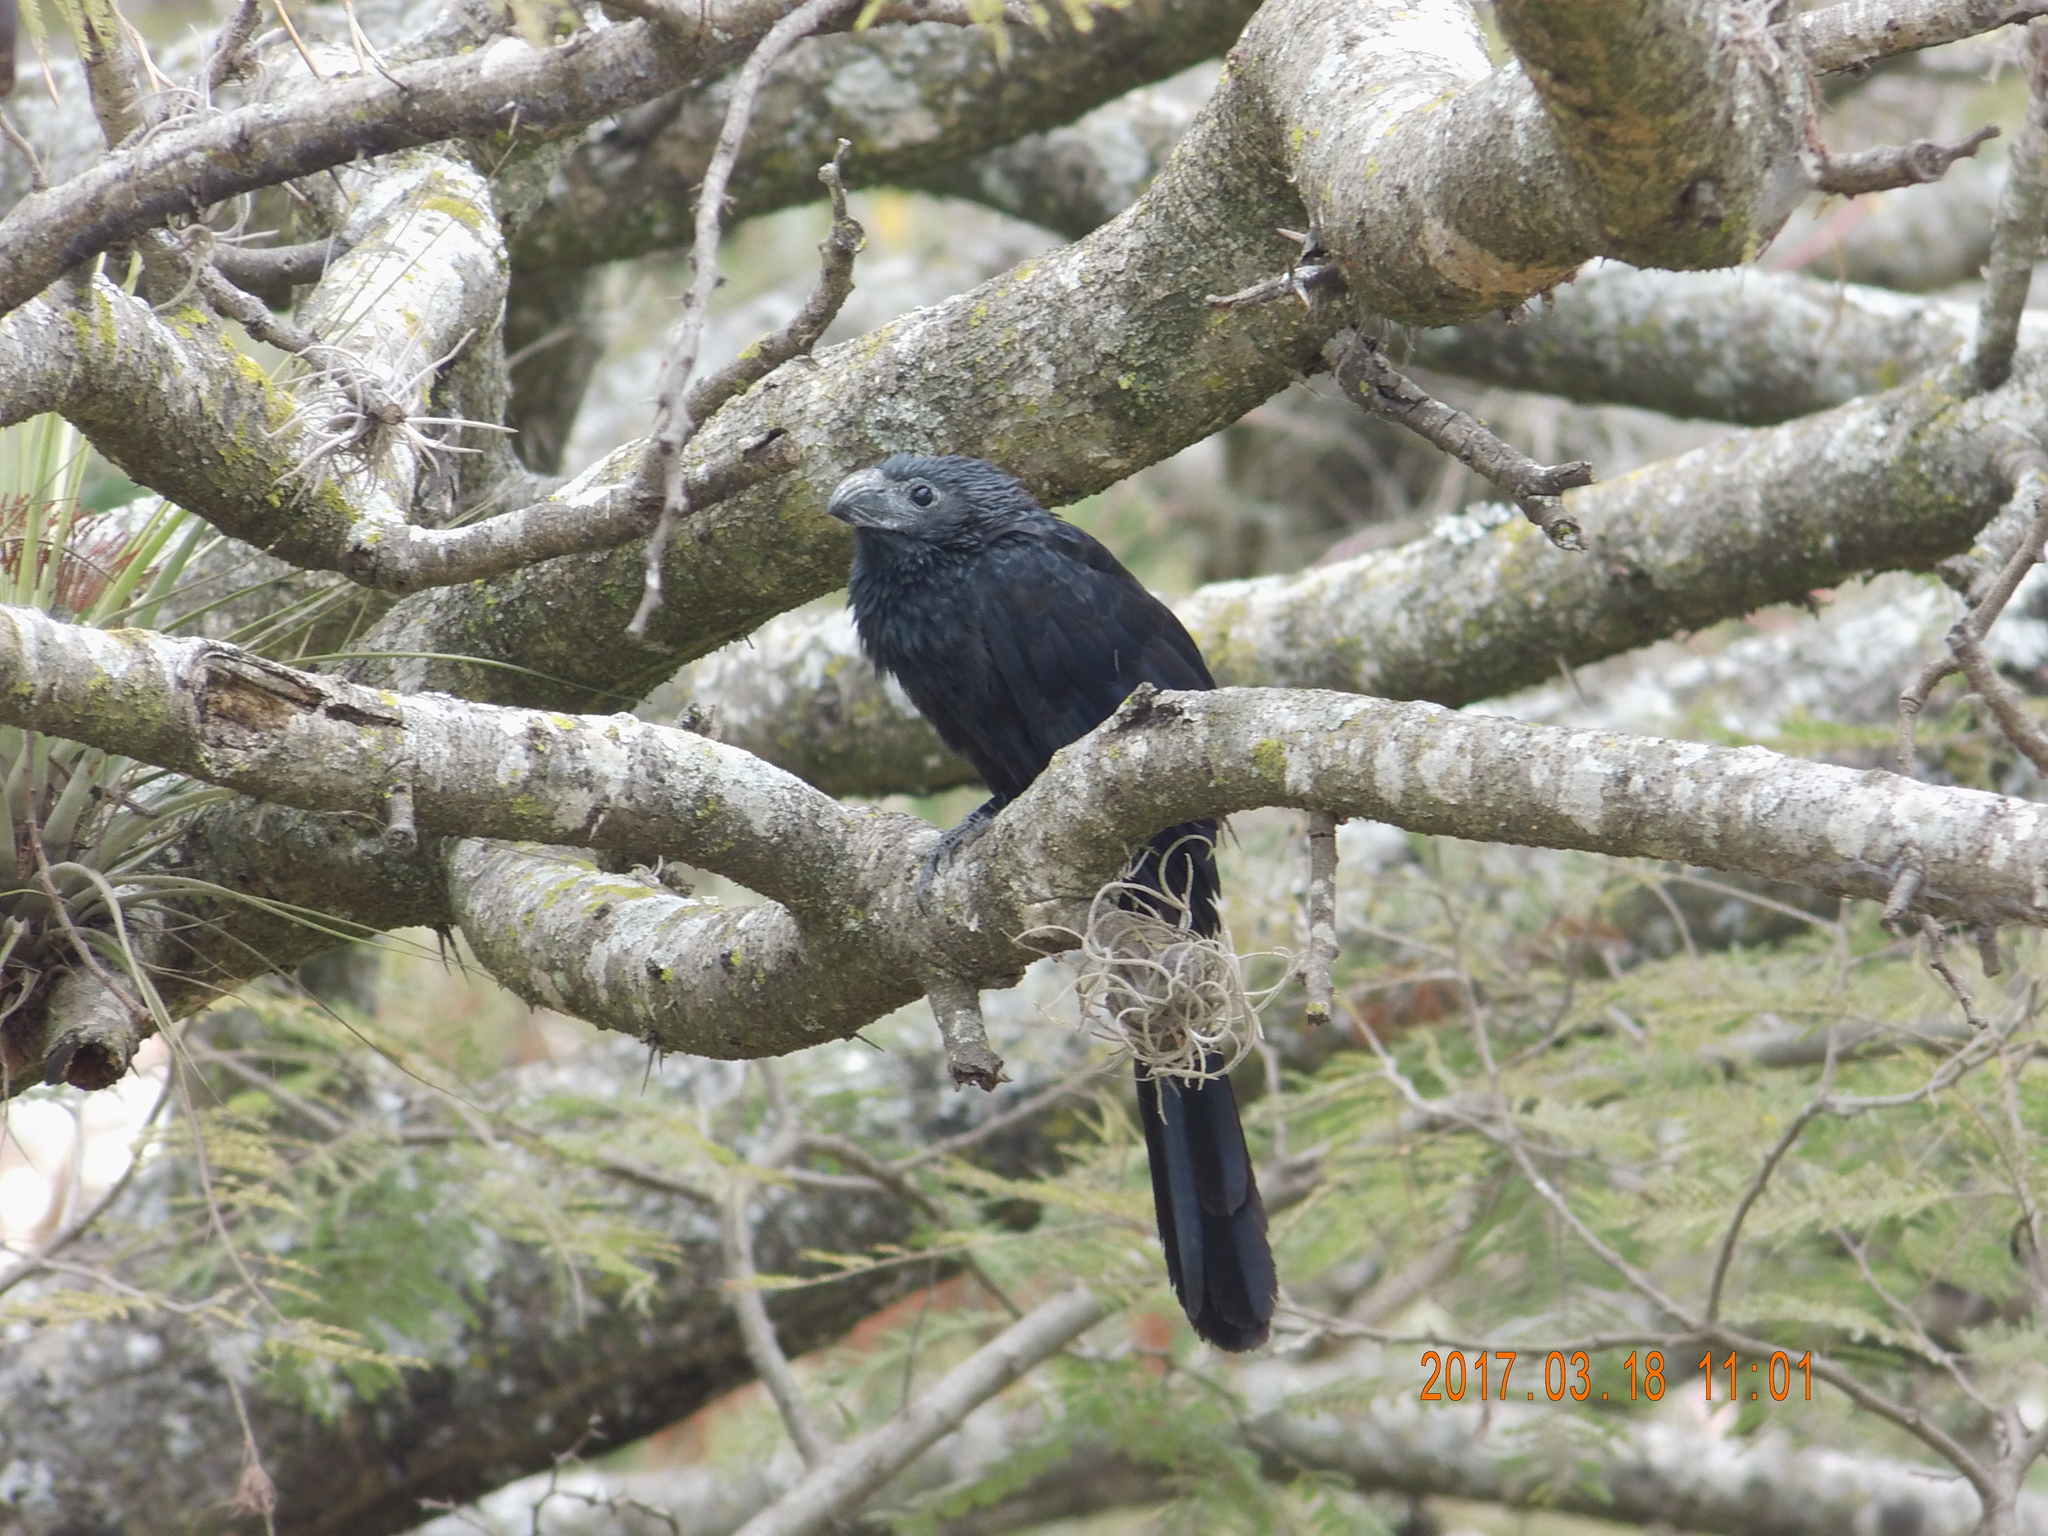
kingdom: Animalia
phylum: Chordata
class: Aves
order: Cuculiformes
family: Cuculidae
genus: Crotophaga
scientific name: Crotophaga sulcirostris
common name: Groove-billed ani
